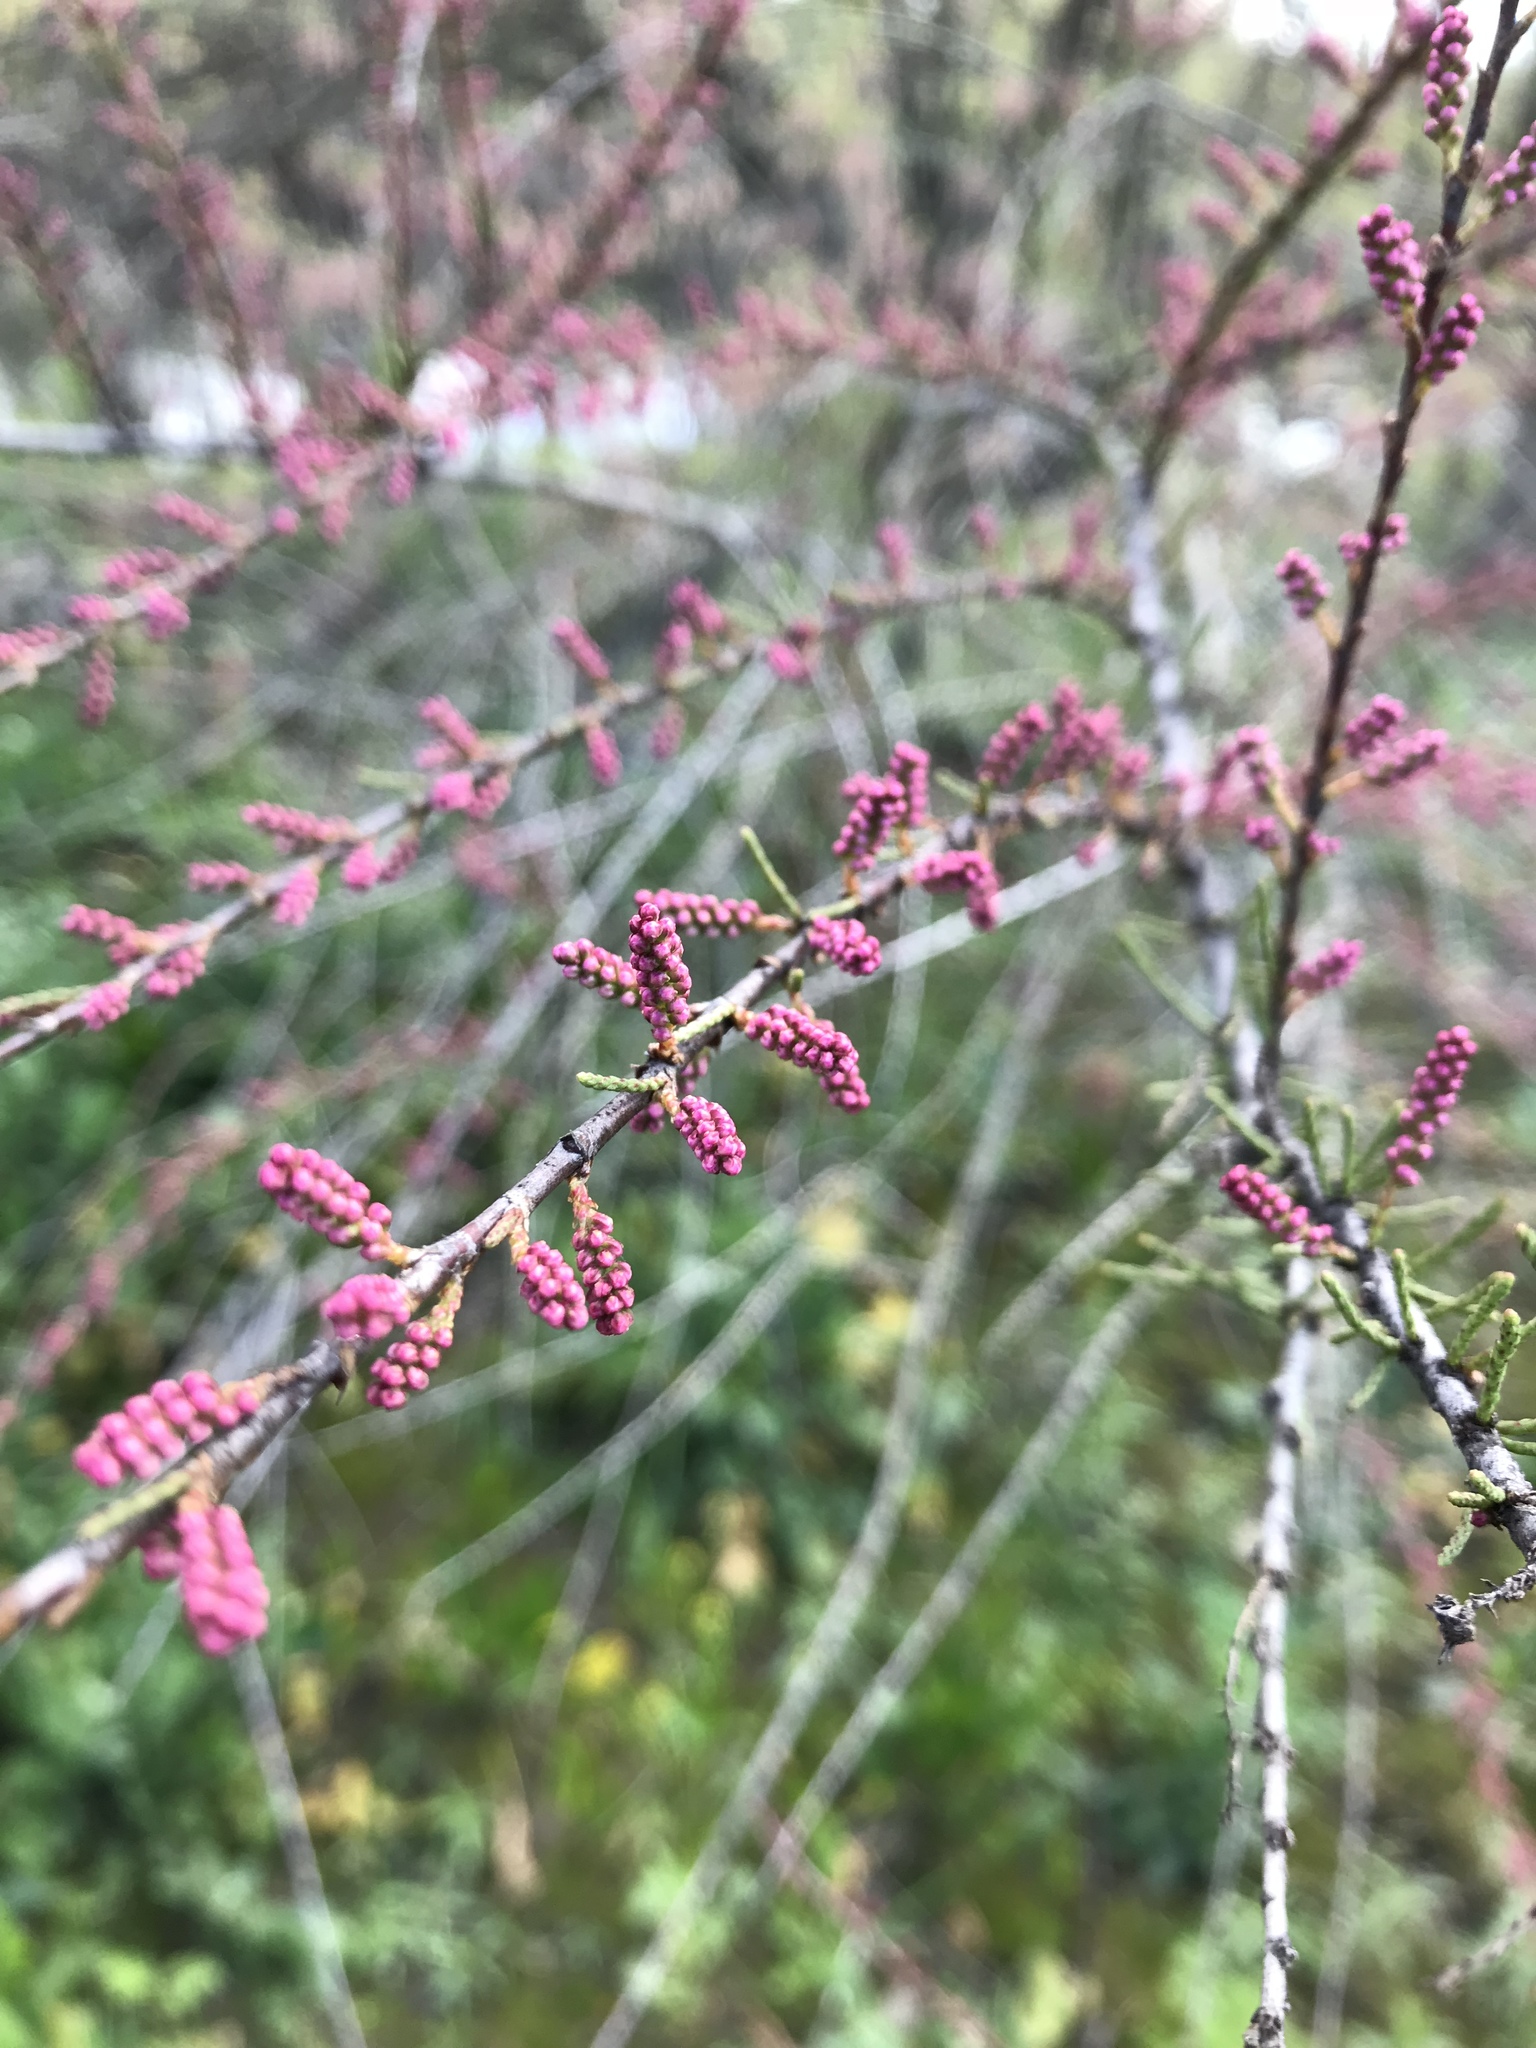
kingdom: Plantae
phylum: Tracheophyta
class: Magnoliopsida
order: Caryophyllales
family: Tamaricaceae
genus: Tamarix
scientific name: Tamarix
